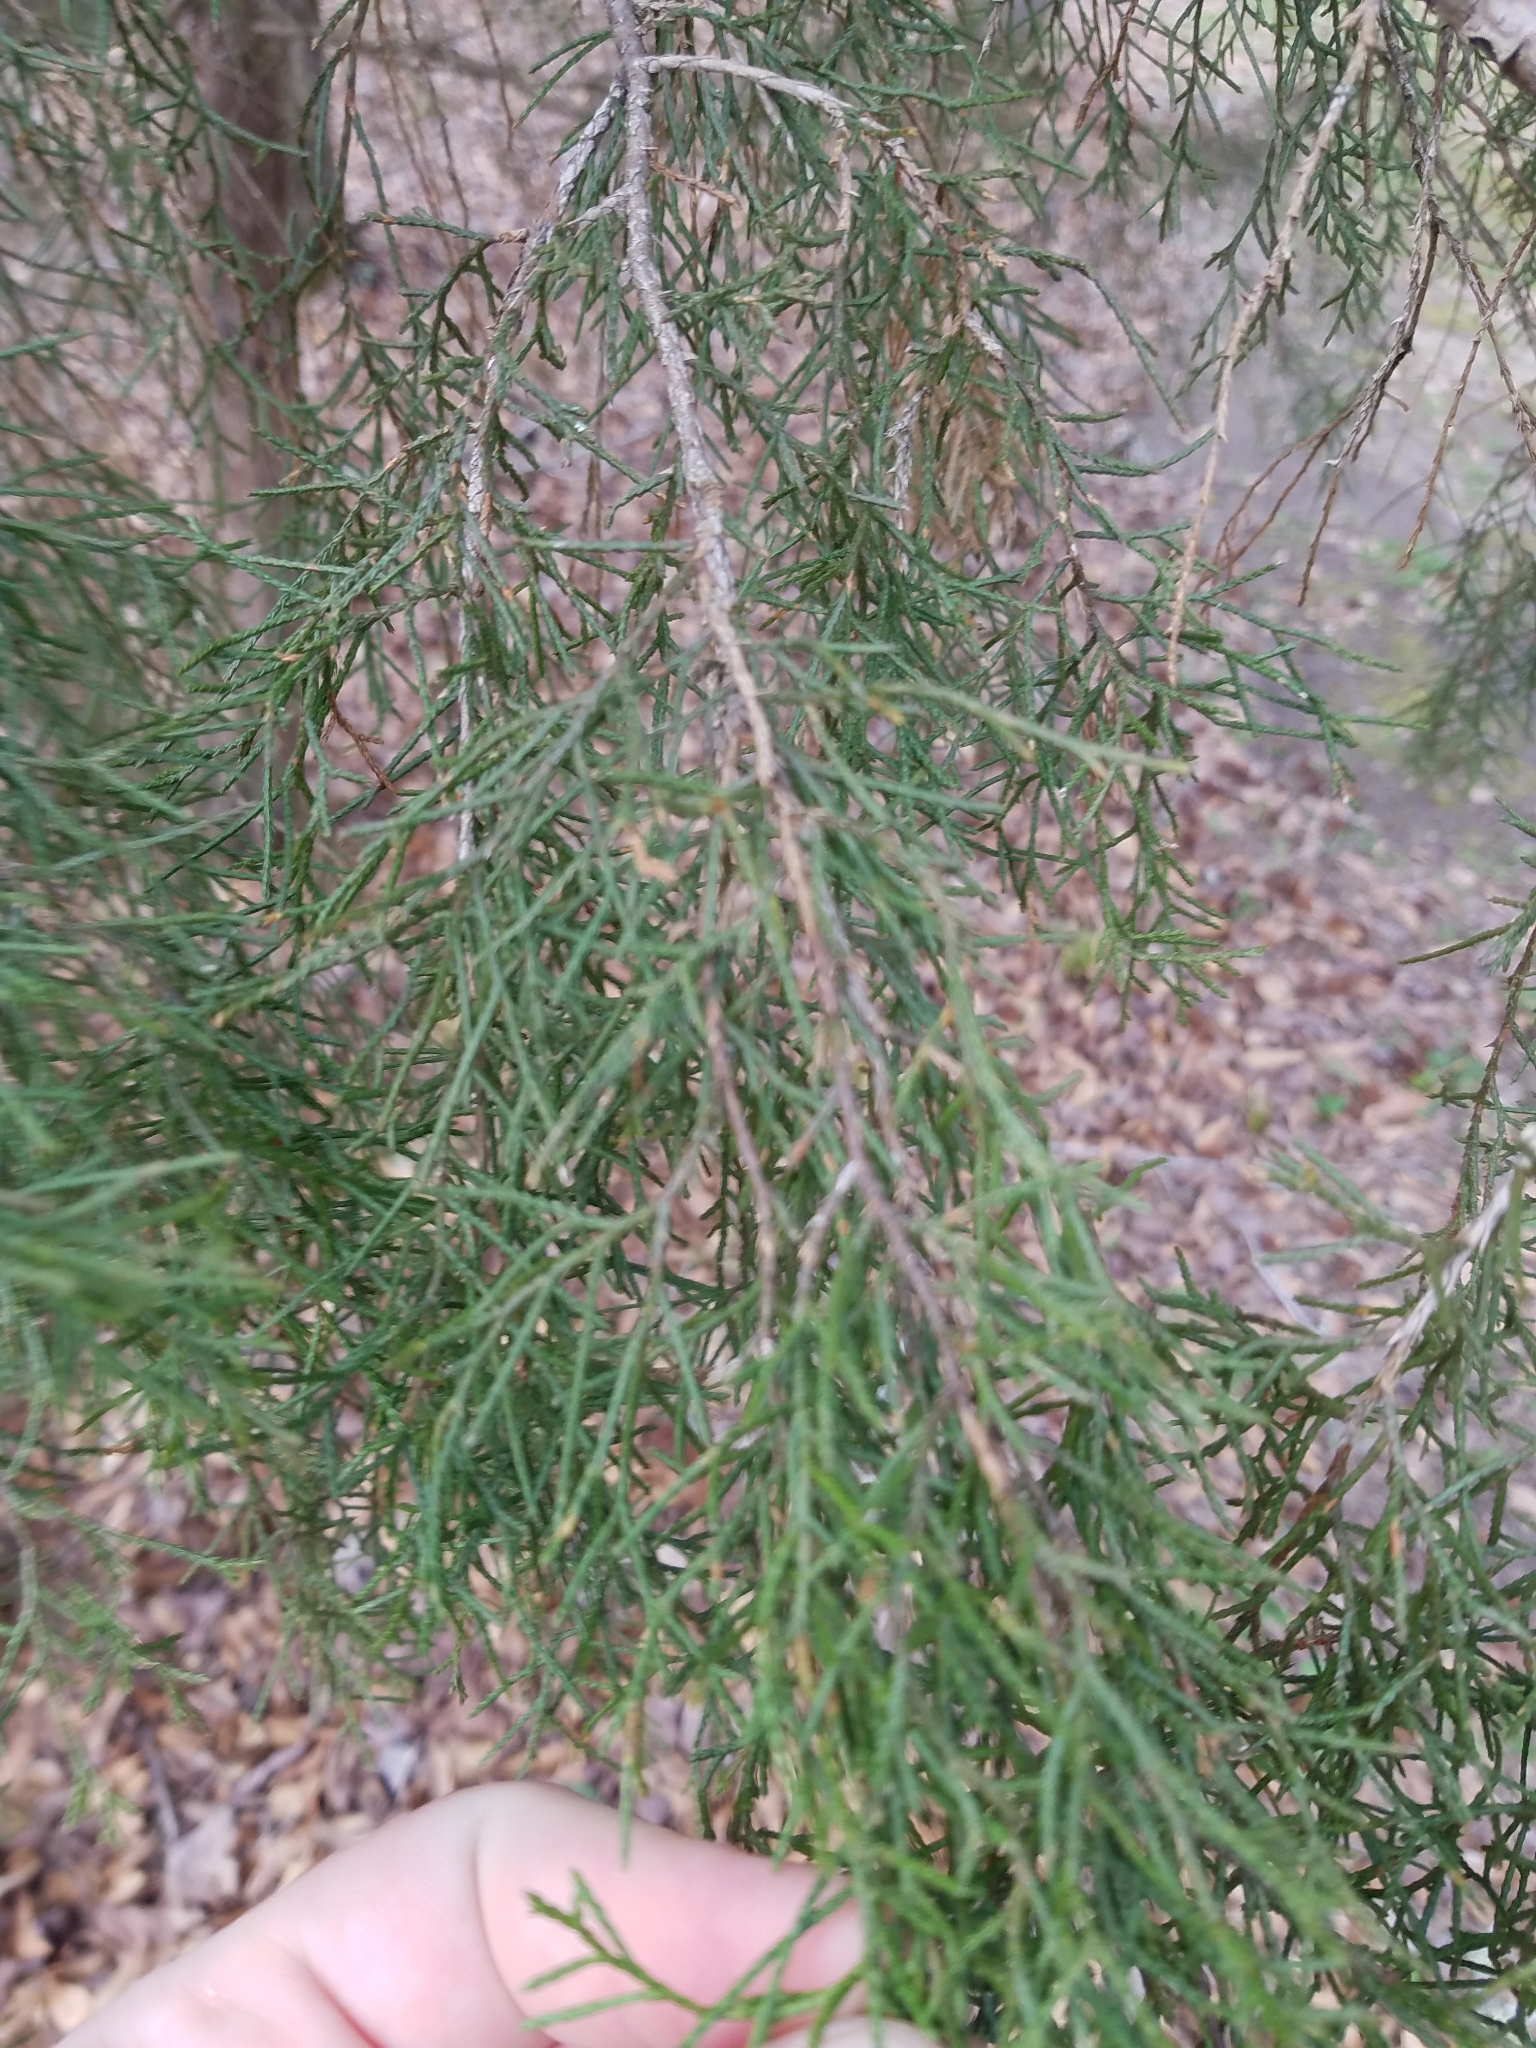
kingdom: Plantae
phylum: Tracheophyta
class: Pinopsida
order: Pinales
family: Cupressaceae
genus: Juniperus
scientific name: Juniperus virginiana
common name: Red juniper
